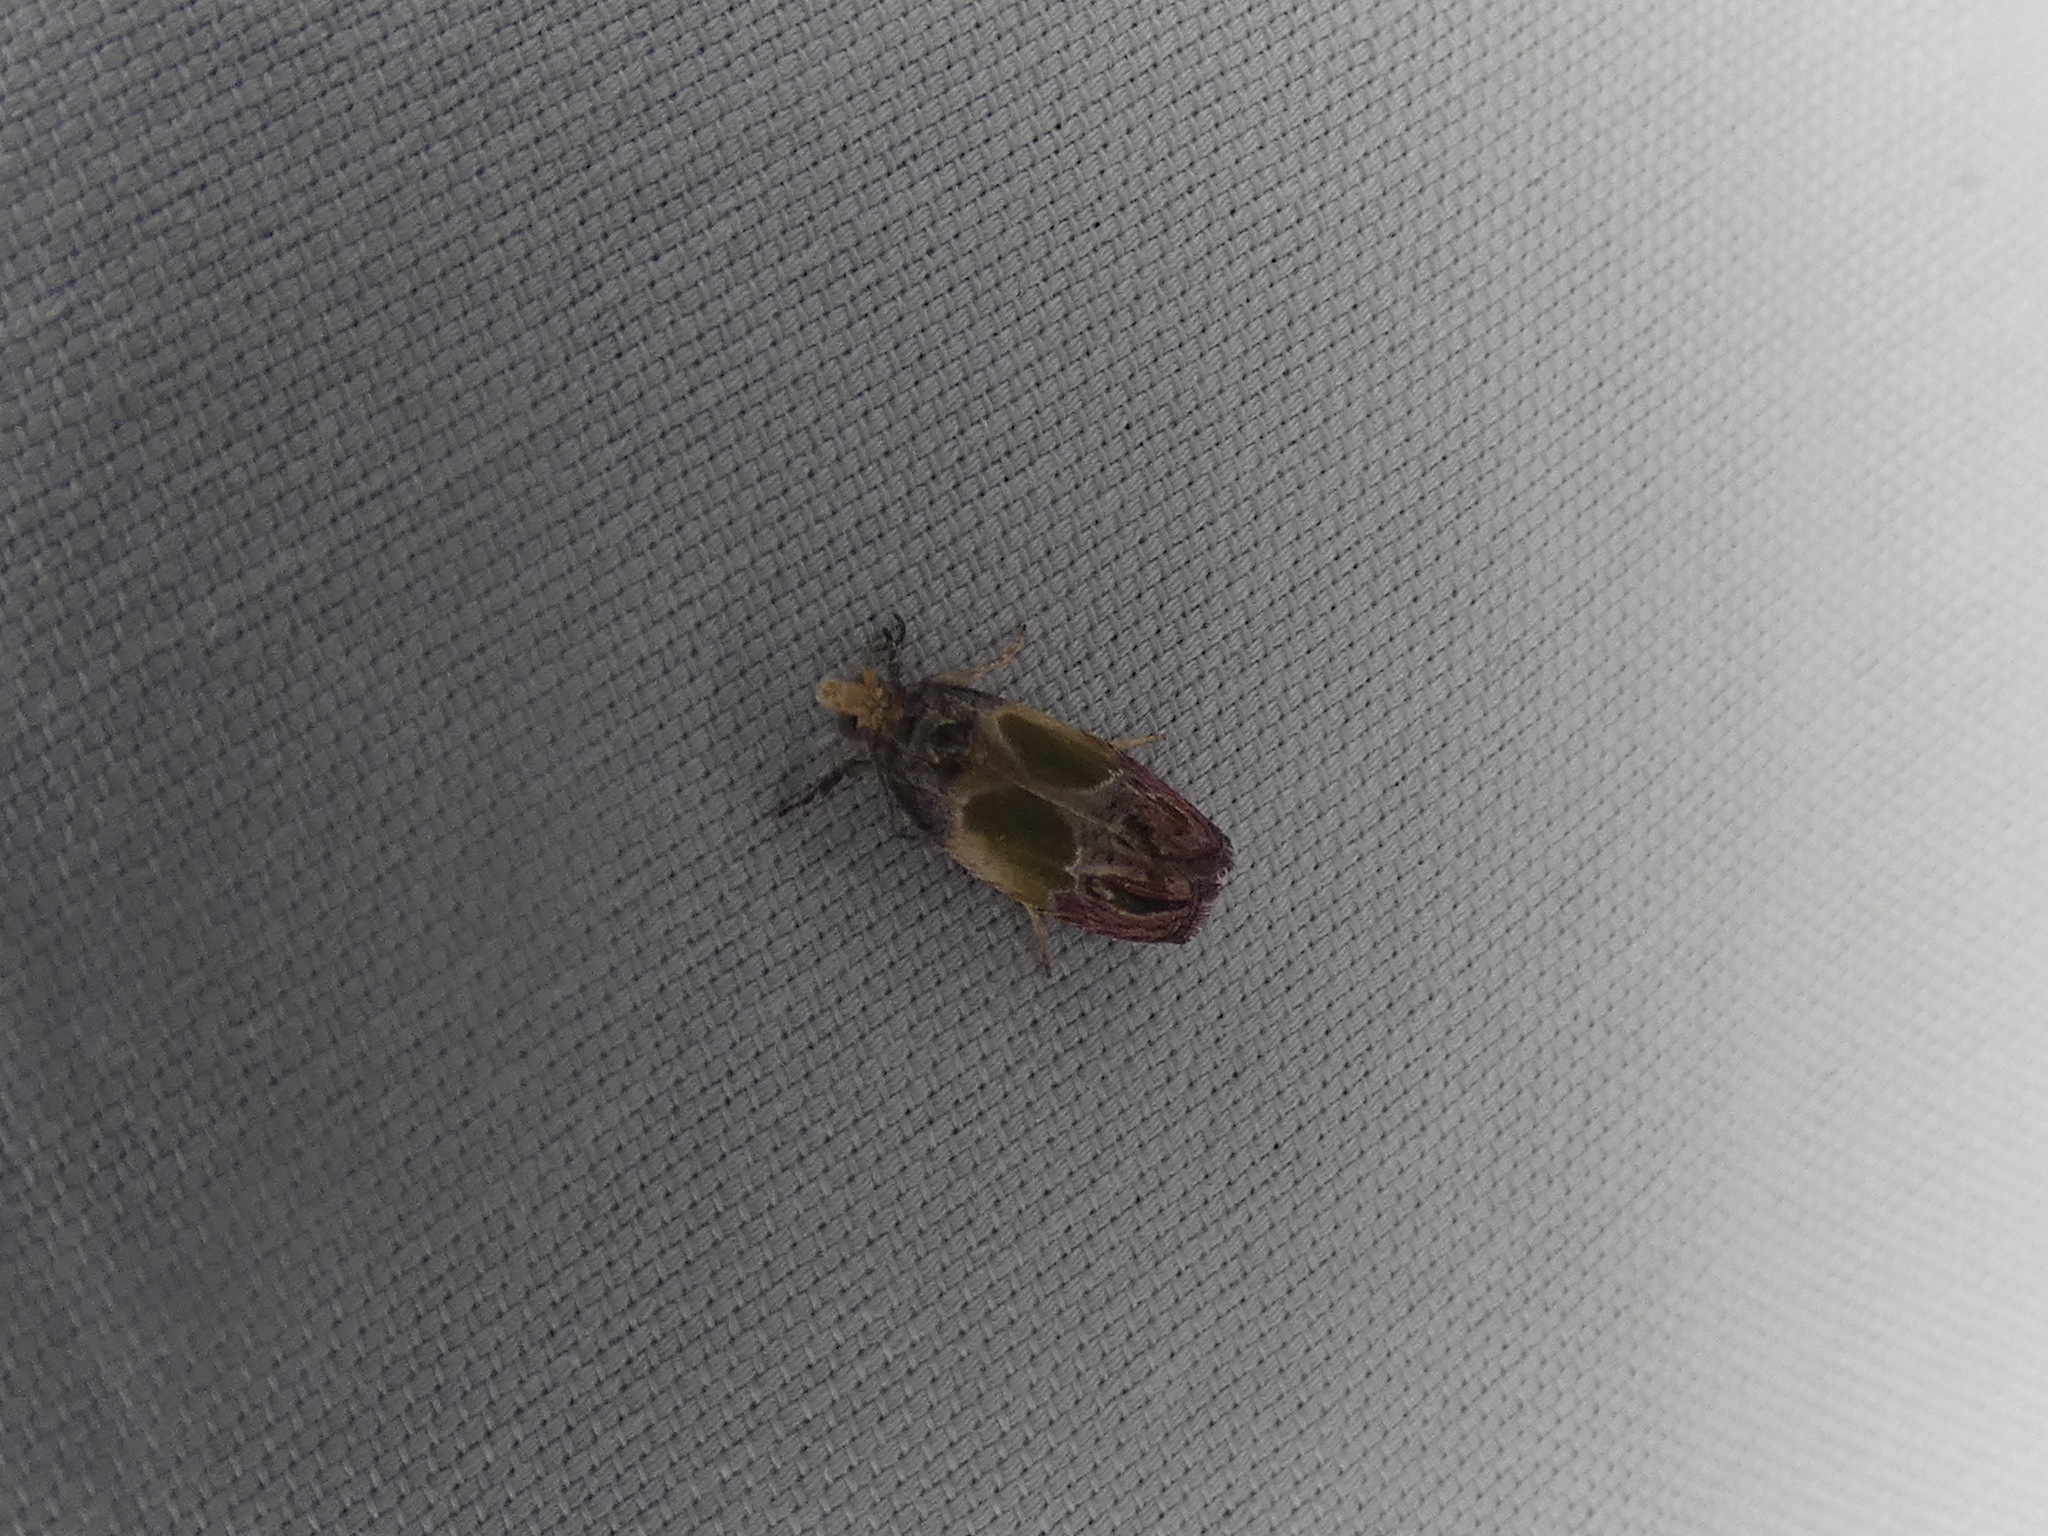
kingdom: Animalia
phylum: Arthropoda
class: Insecta
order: Lepidoptera
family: Tortricidae
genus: Eumarozia
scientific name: Eumarozia malachitana
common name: Sculptured moth
